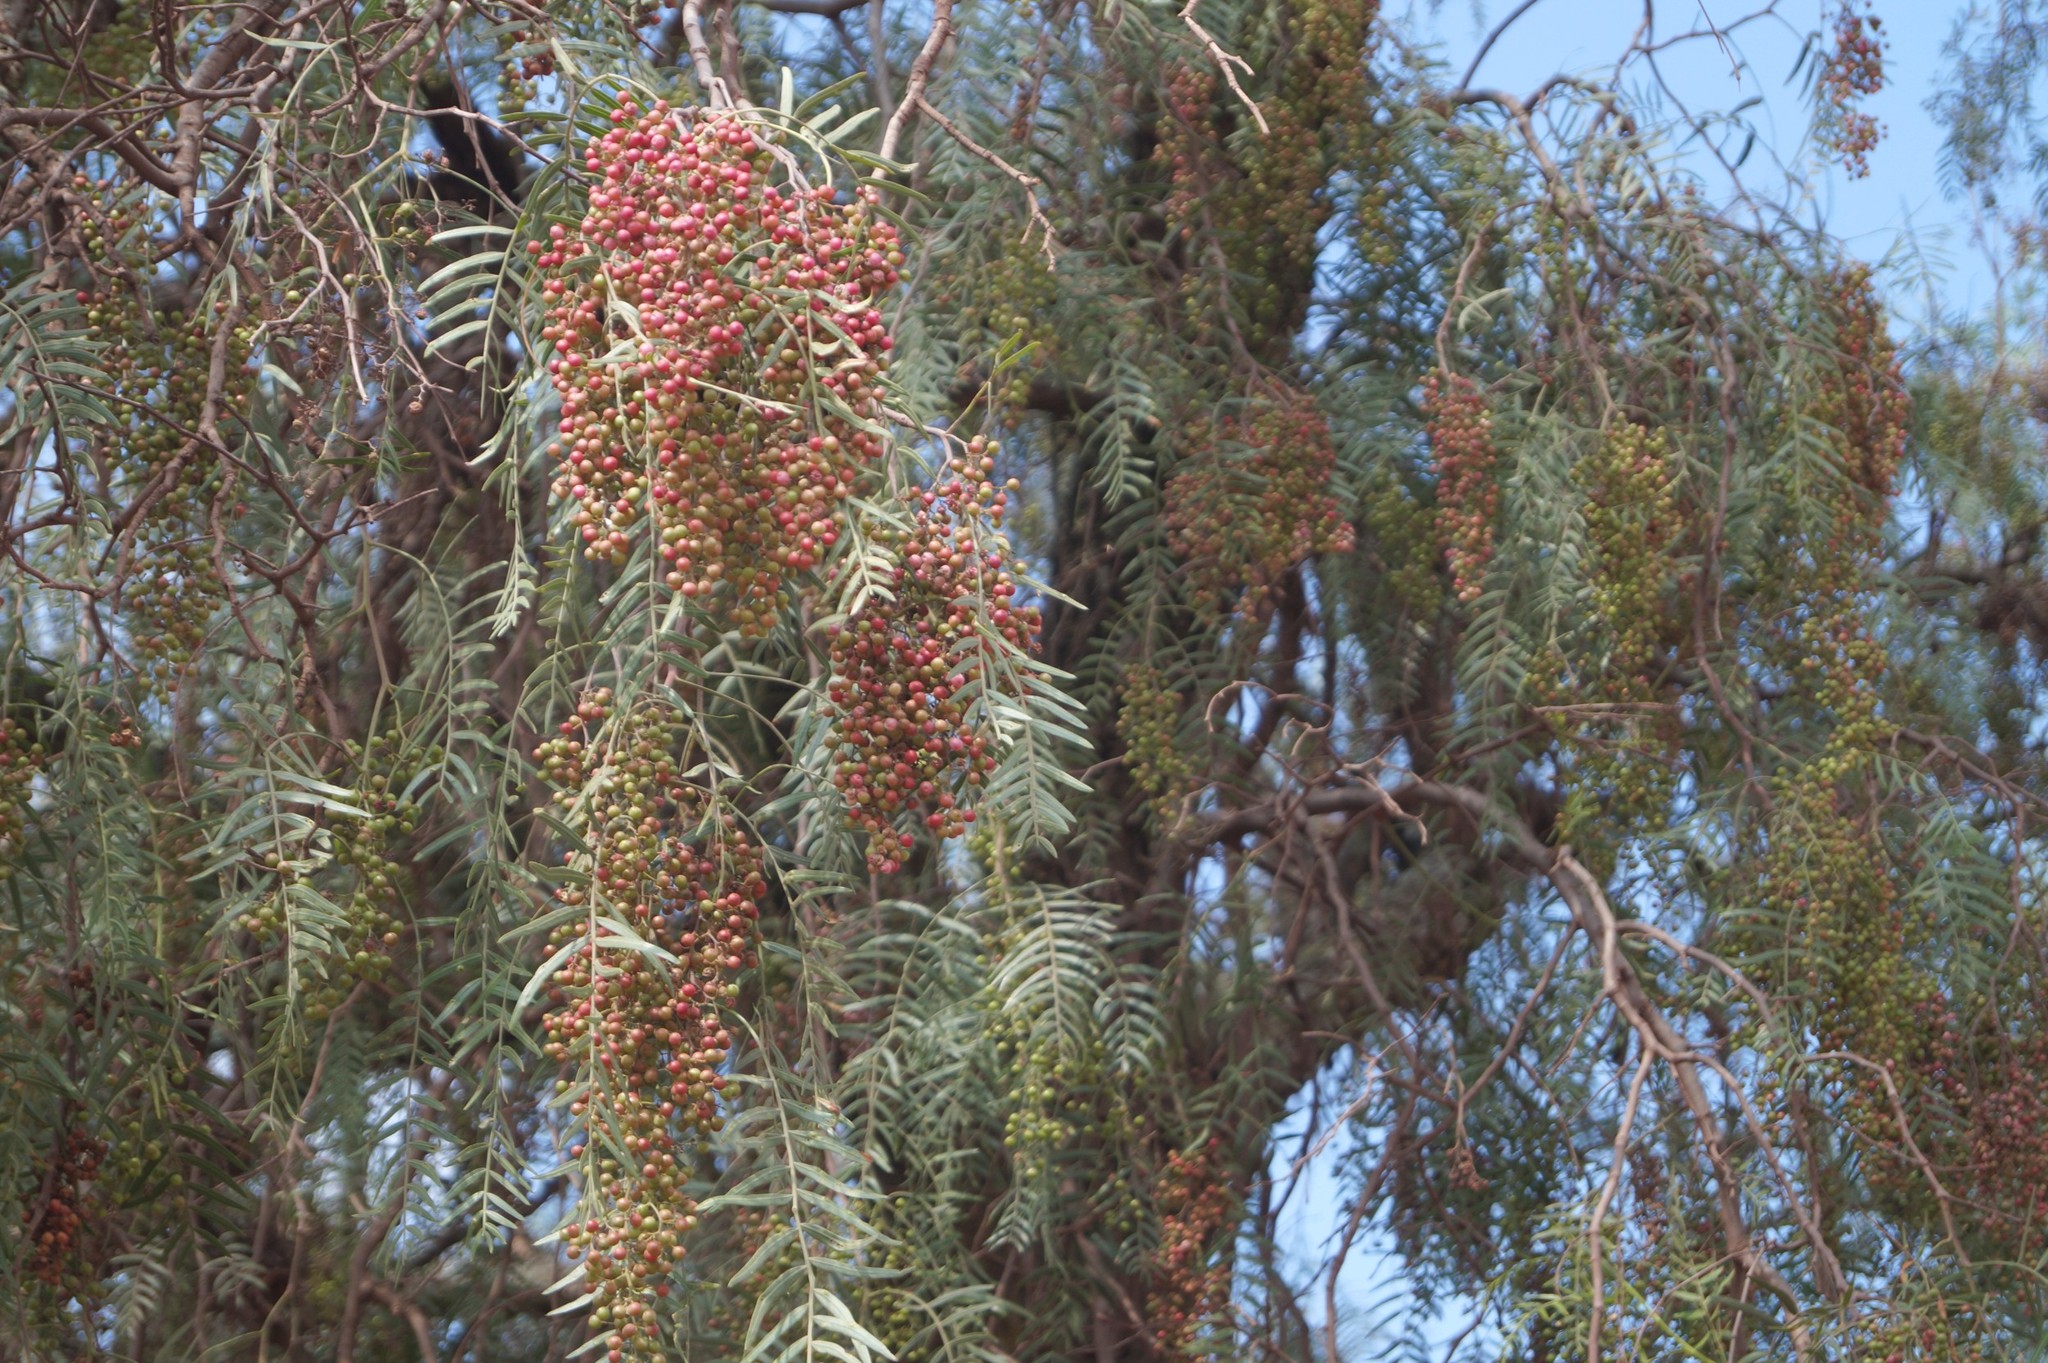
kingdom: Plantae
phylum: Tracheophyta
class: Magnoliopsida
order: Sapindales
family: Anacardiaceae
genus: Schinus
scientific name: Schinus molle
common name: Peruvian peppertree
